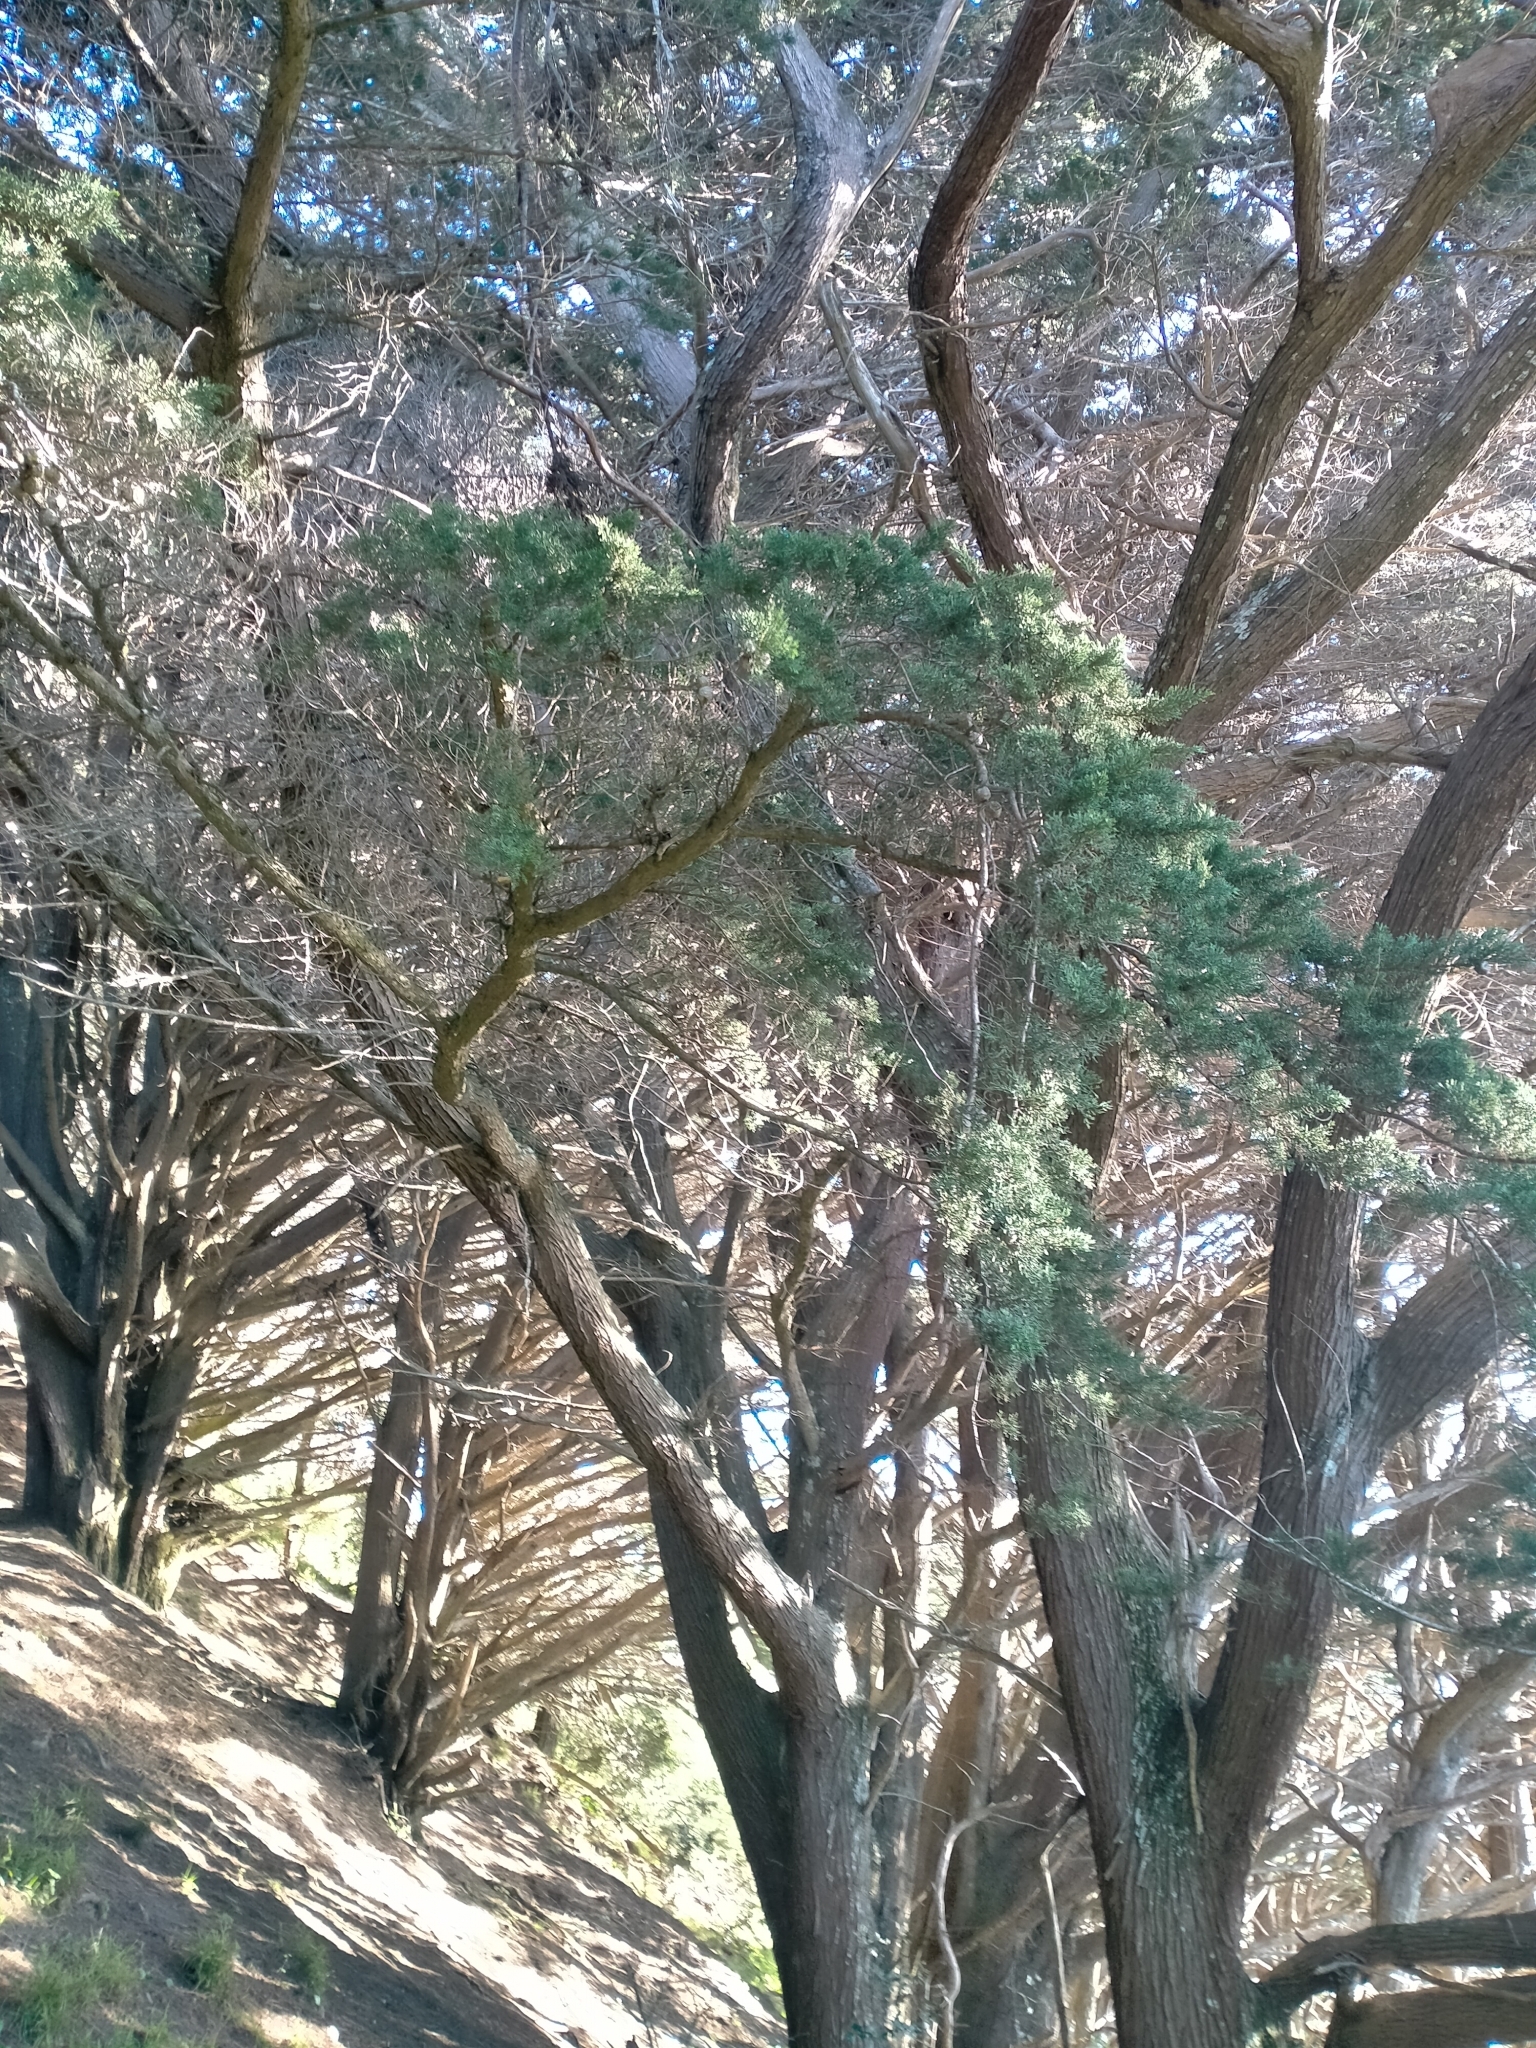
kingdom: Plantae
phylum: Tracheophyta
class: Pinopsida
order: Pinales
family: Cupressaceae
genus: Cupressus
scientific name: Cupressus macrocarpa
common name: Monterey cypress
